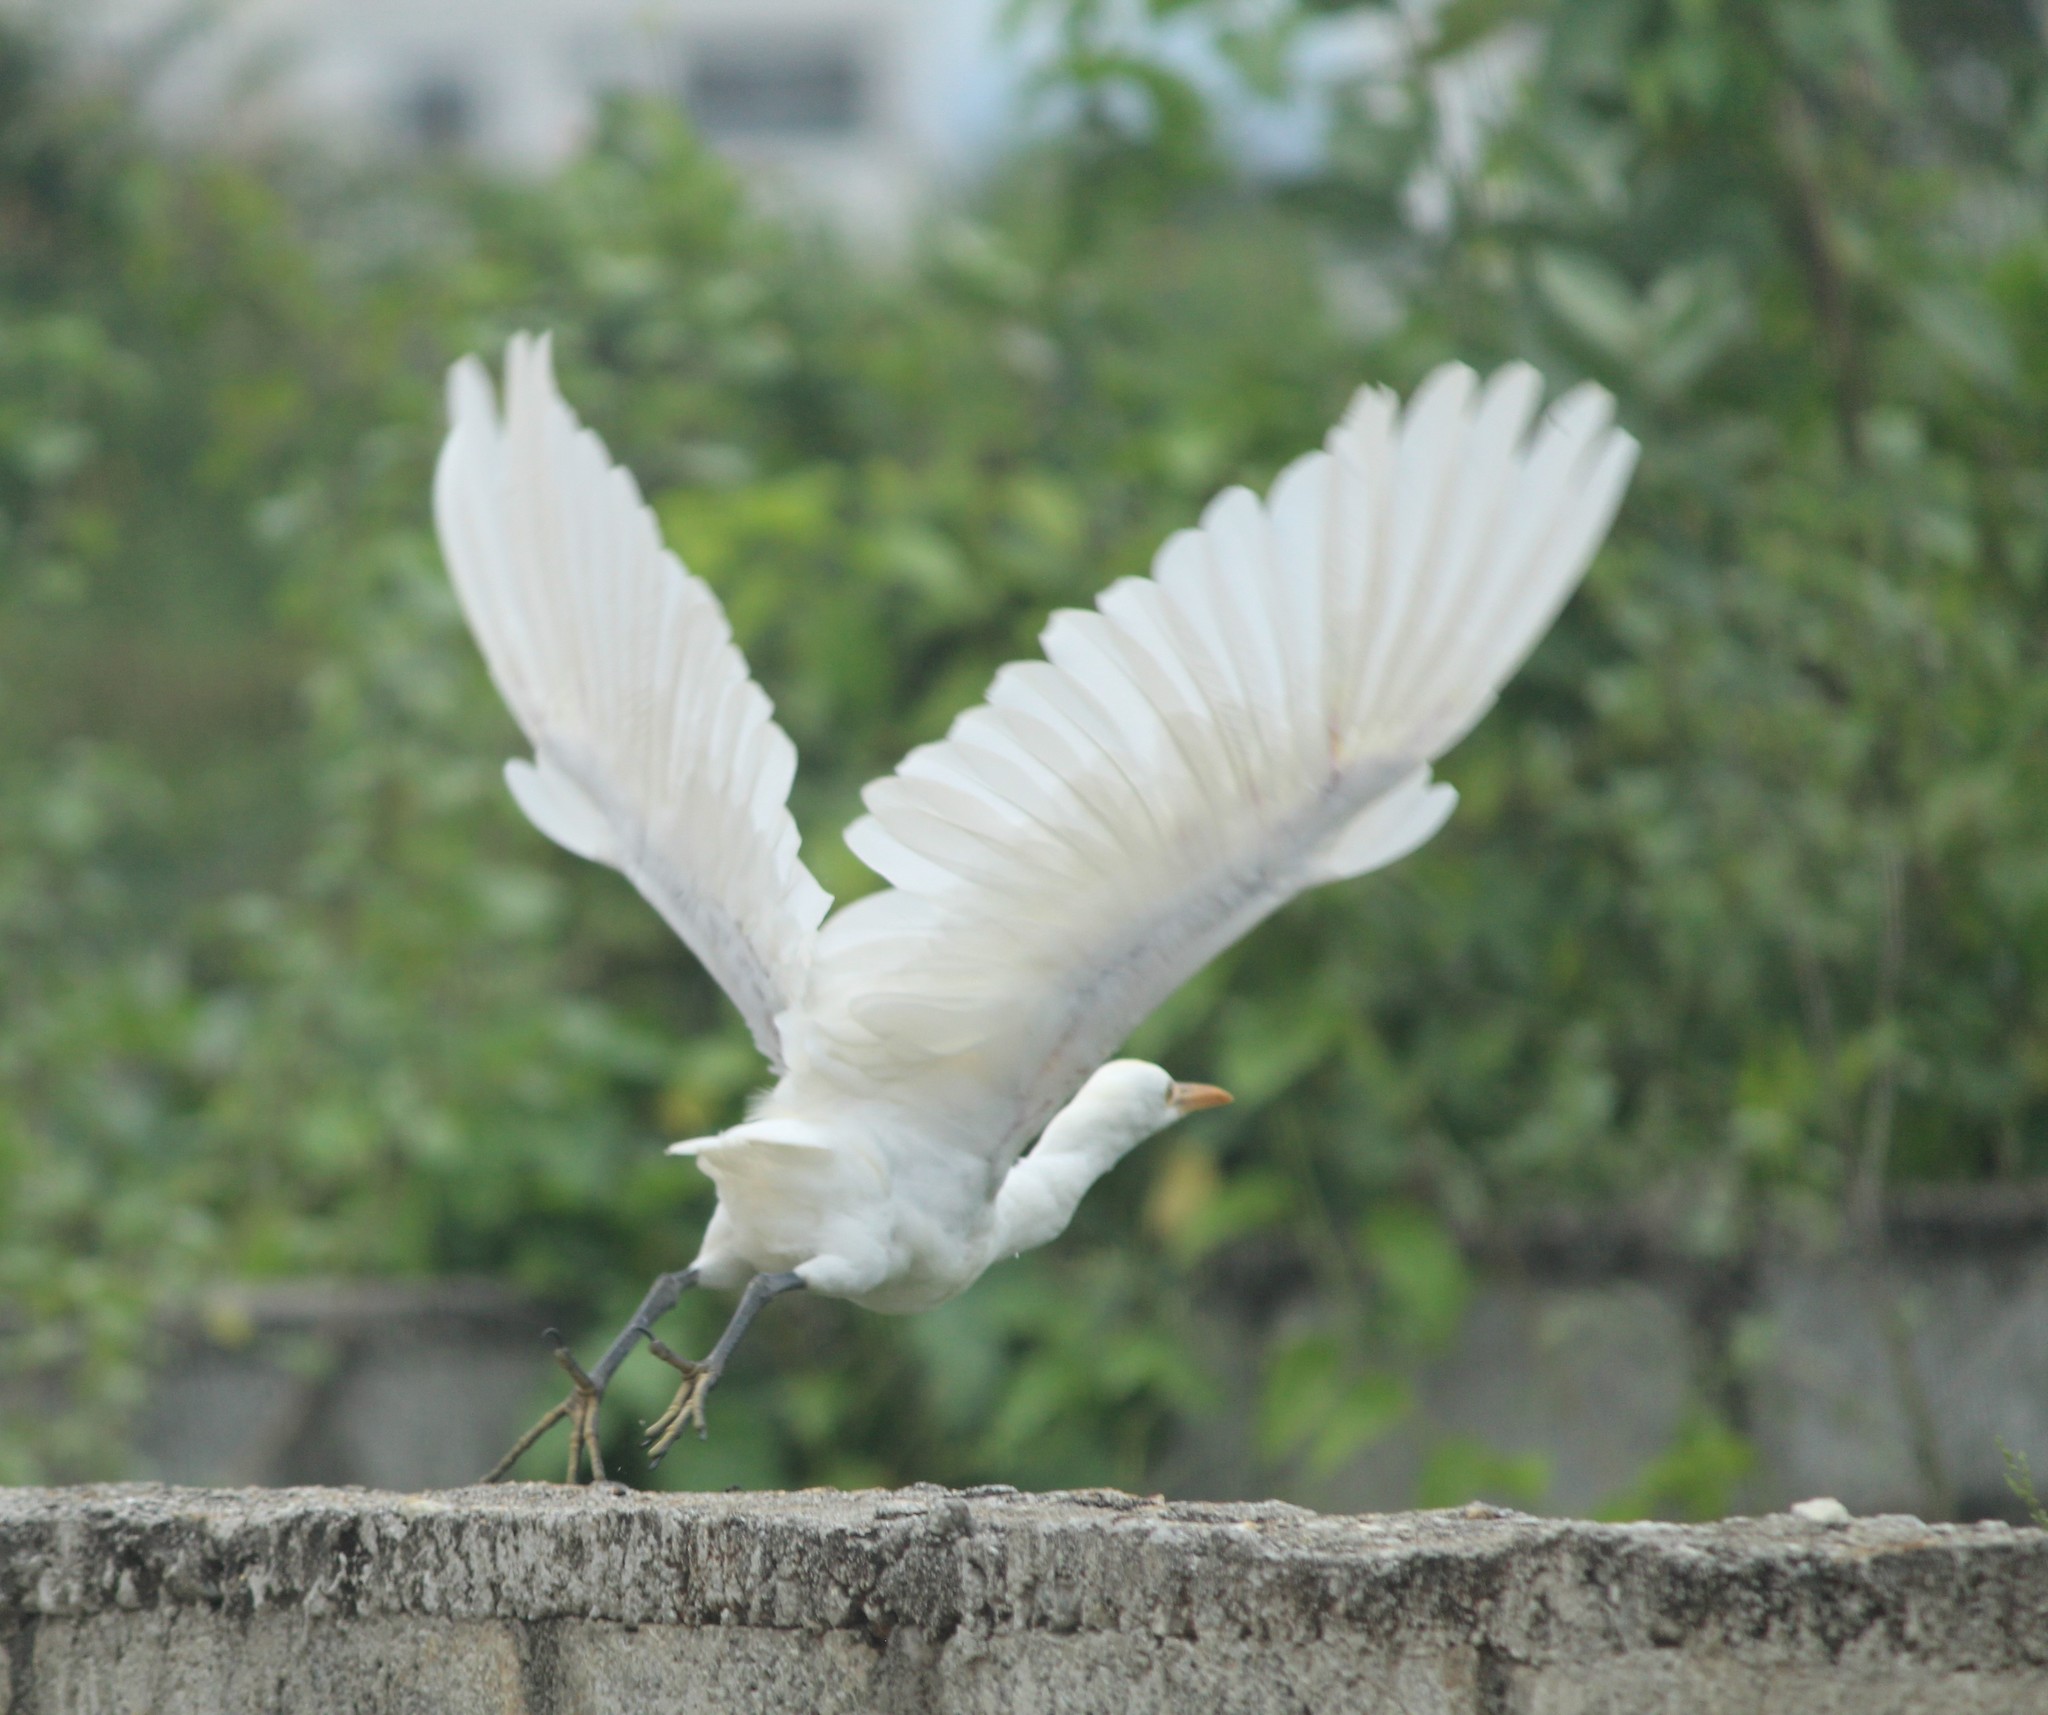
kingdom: Animalia
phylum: Chordata
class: Aves
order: Pelecaniformes
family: Ardeidae
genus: Bubulcus
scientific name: Bubulcus coromandus
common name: Eastern cattle egret
